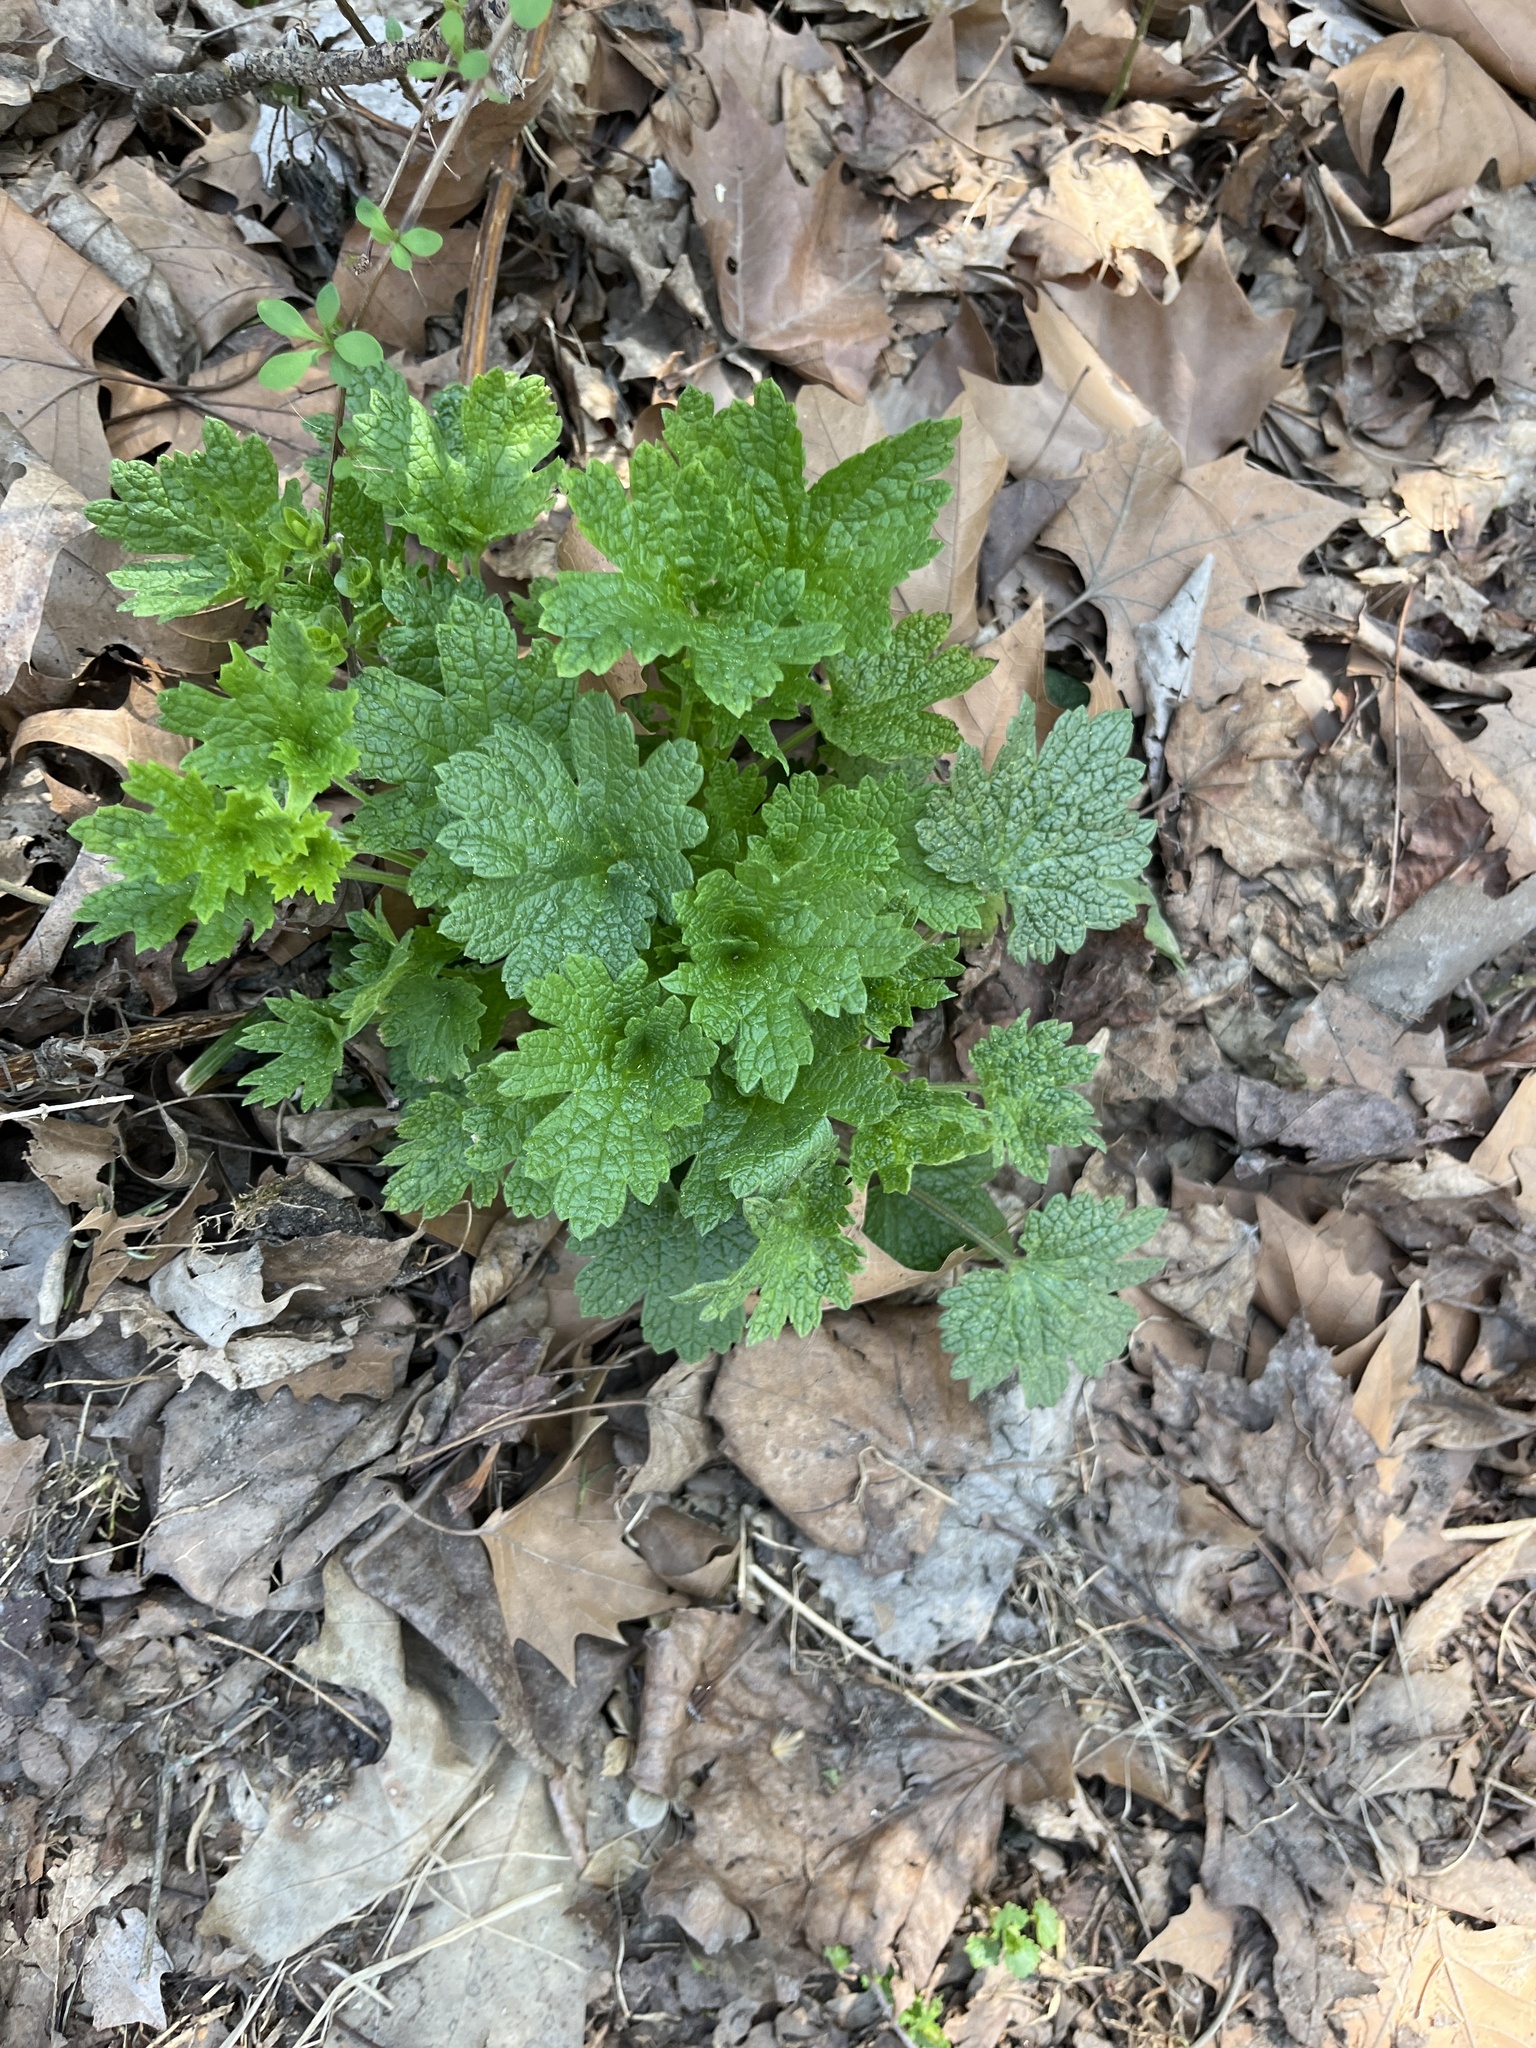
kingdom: Plantae
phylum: Tracheophyta
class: Magnoliopsida
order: Lamiales
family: Lamiaceae
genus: Leonurus
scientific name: Leonurus cardiaca
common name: Motherwort
